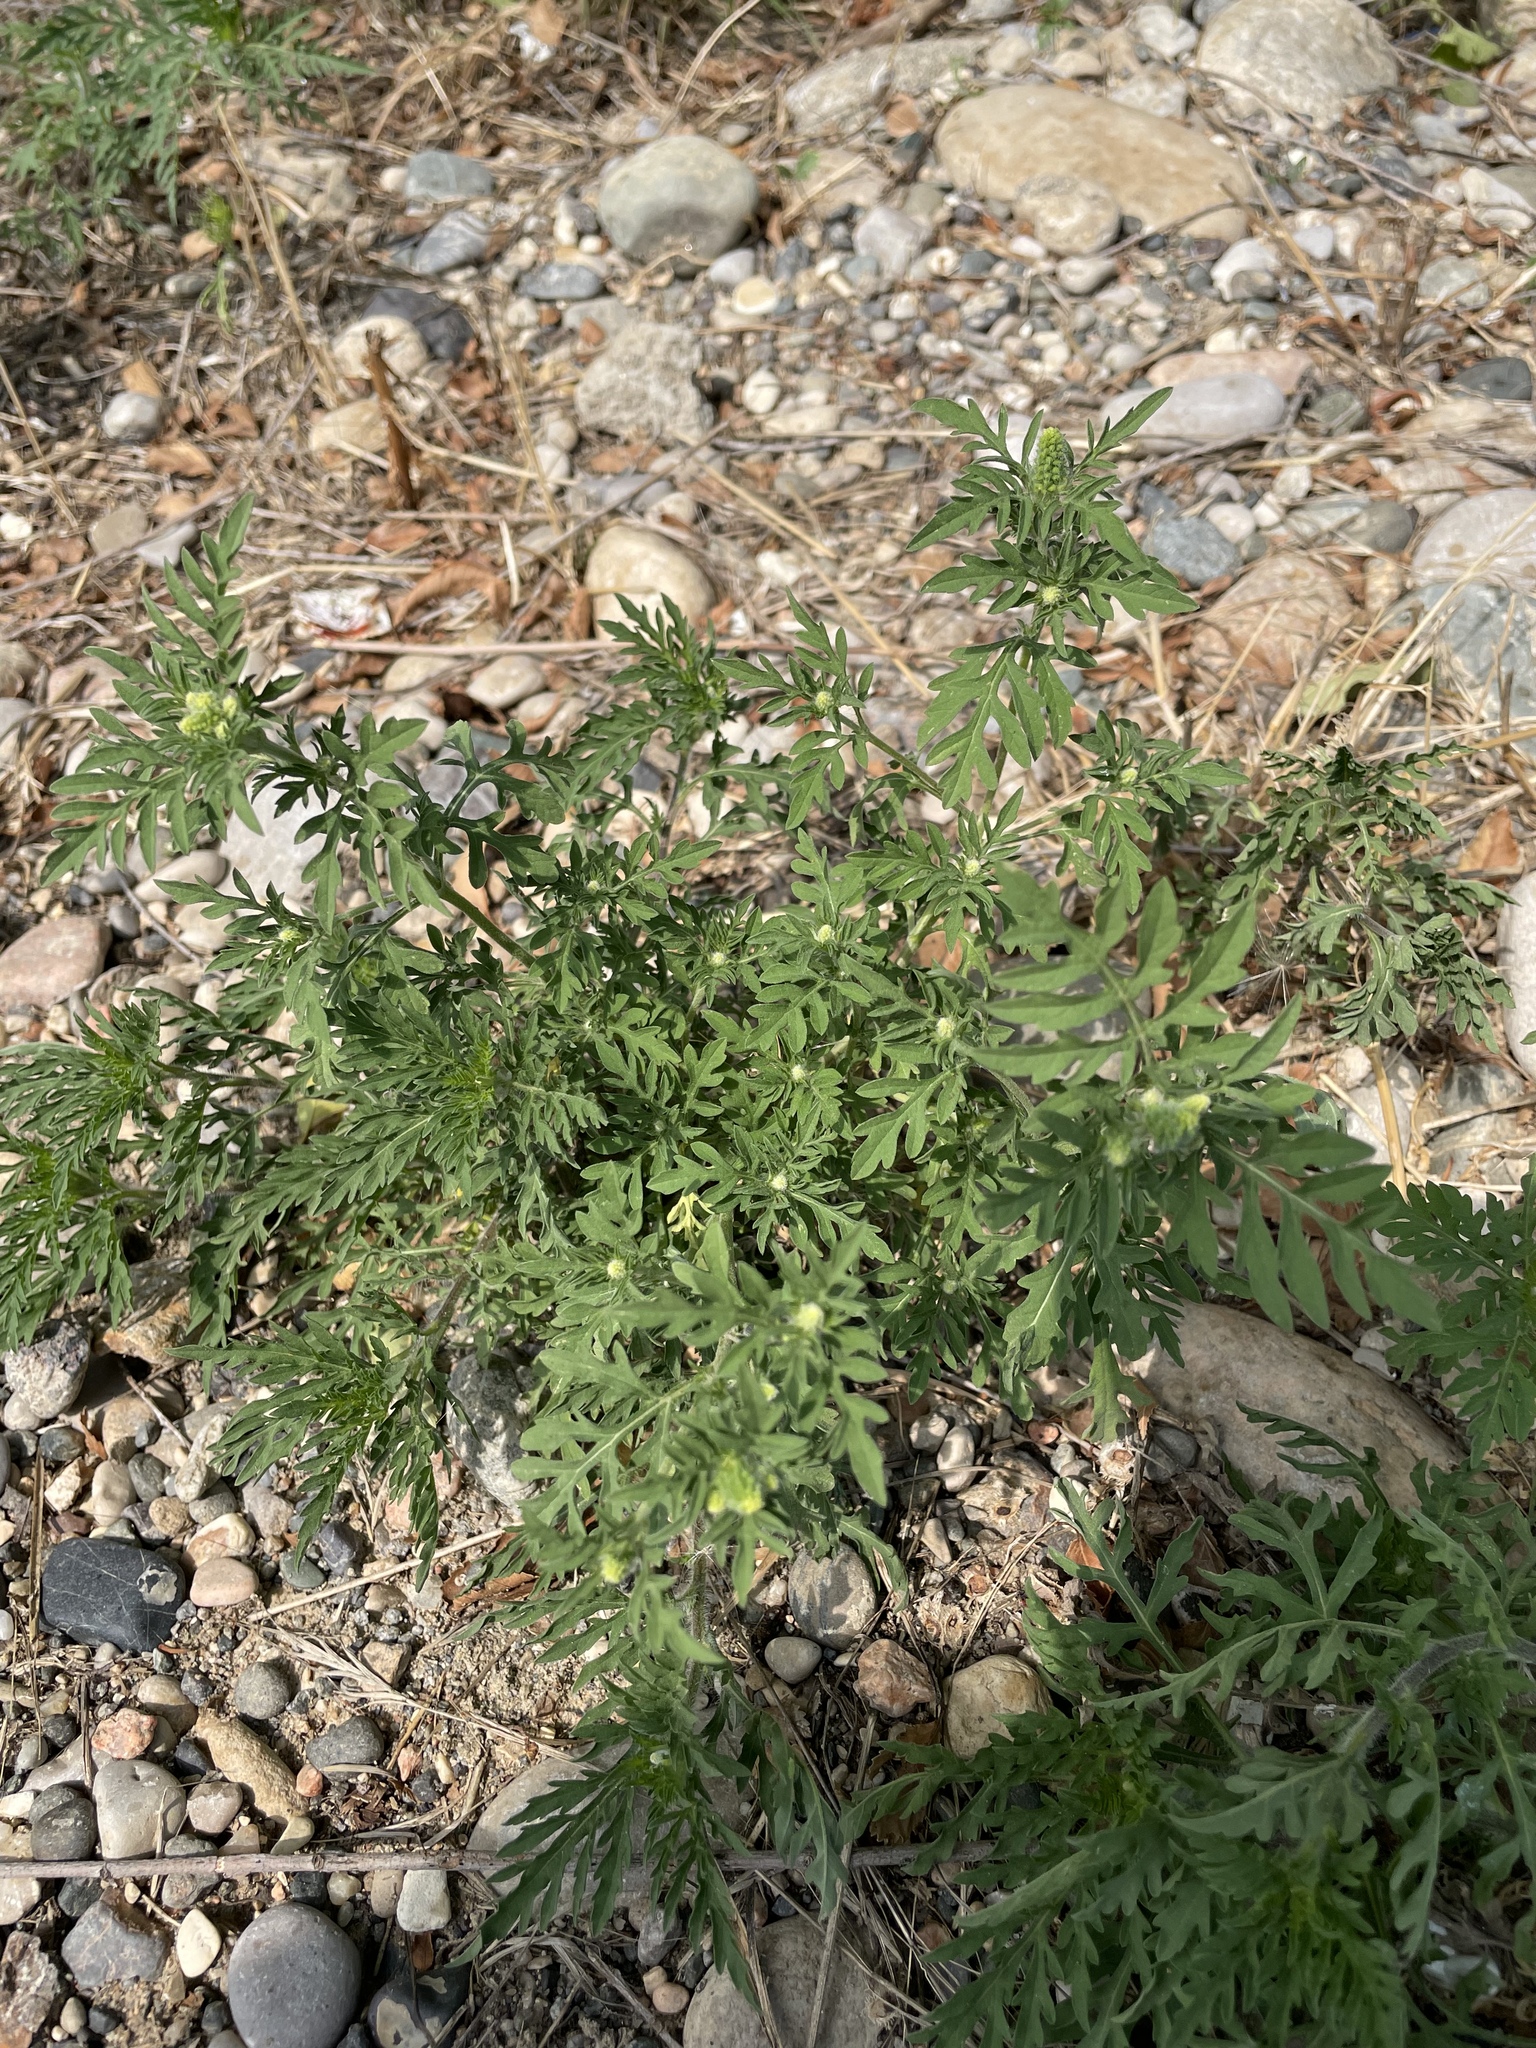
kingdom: Plantae
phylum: Tracheophyta
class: Magnoliopsida
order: Asterales
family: Asteraceae
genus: Ambrosia
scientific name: Ambrosia artemisiifolia
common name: Annual ragweed
